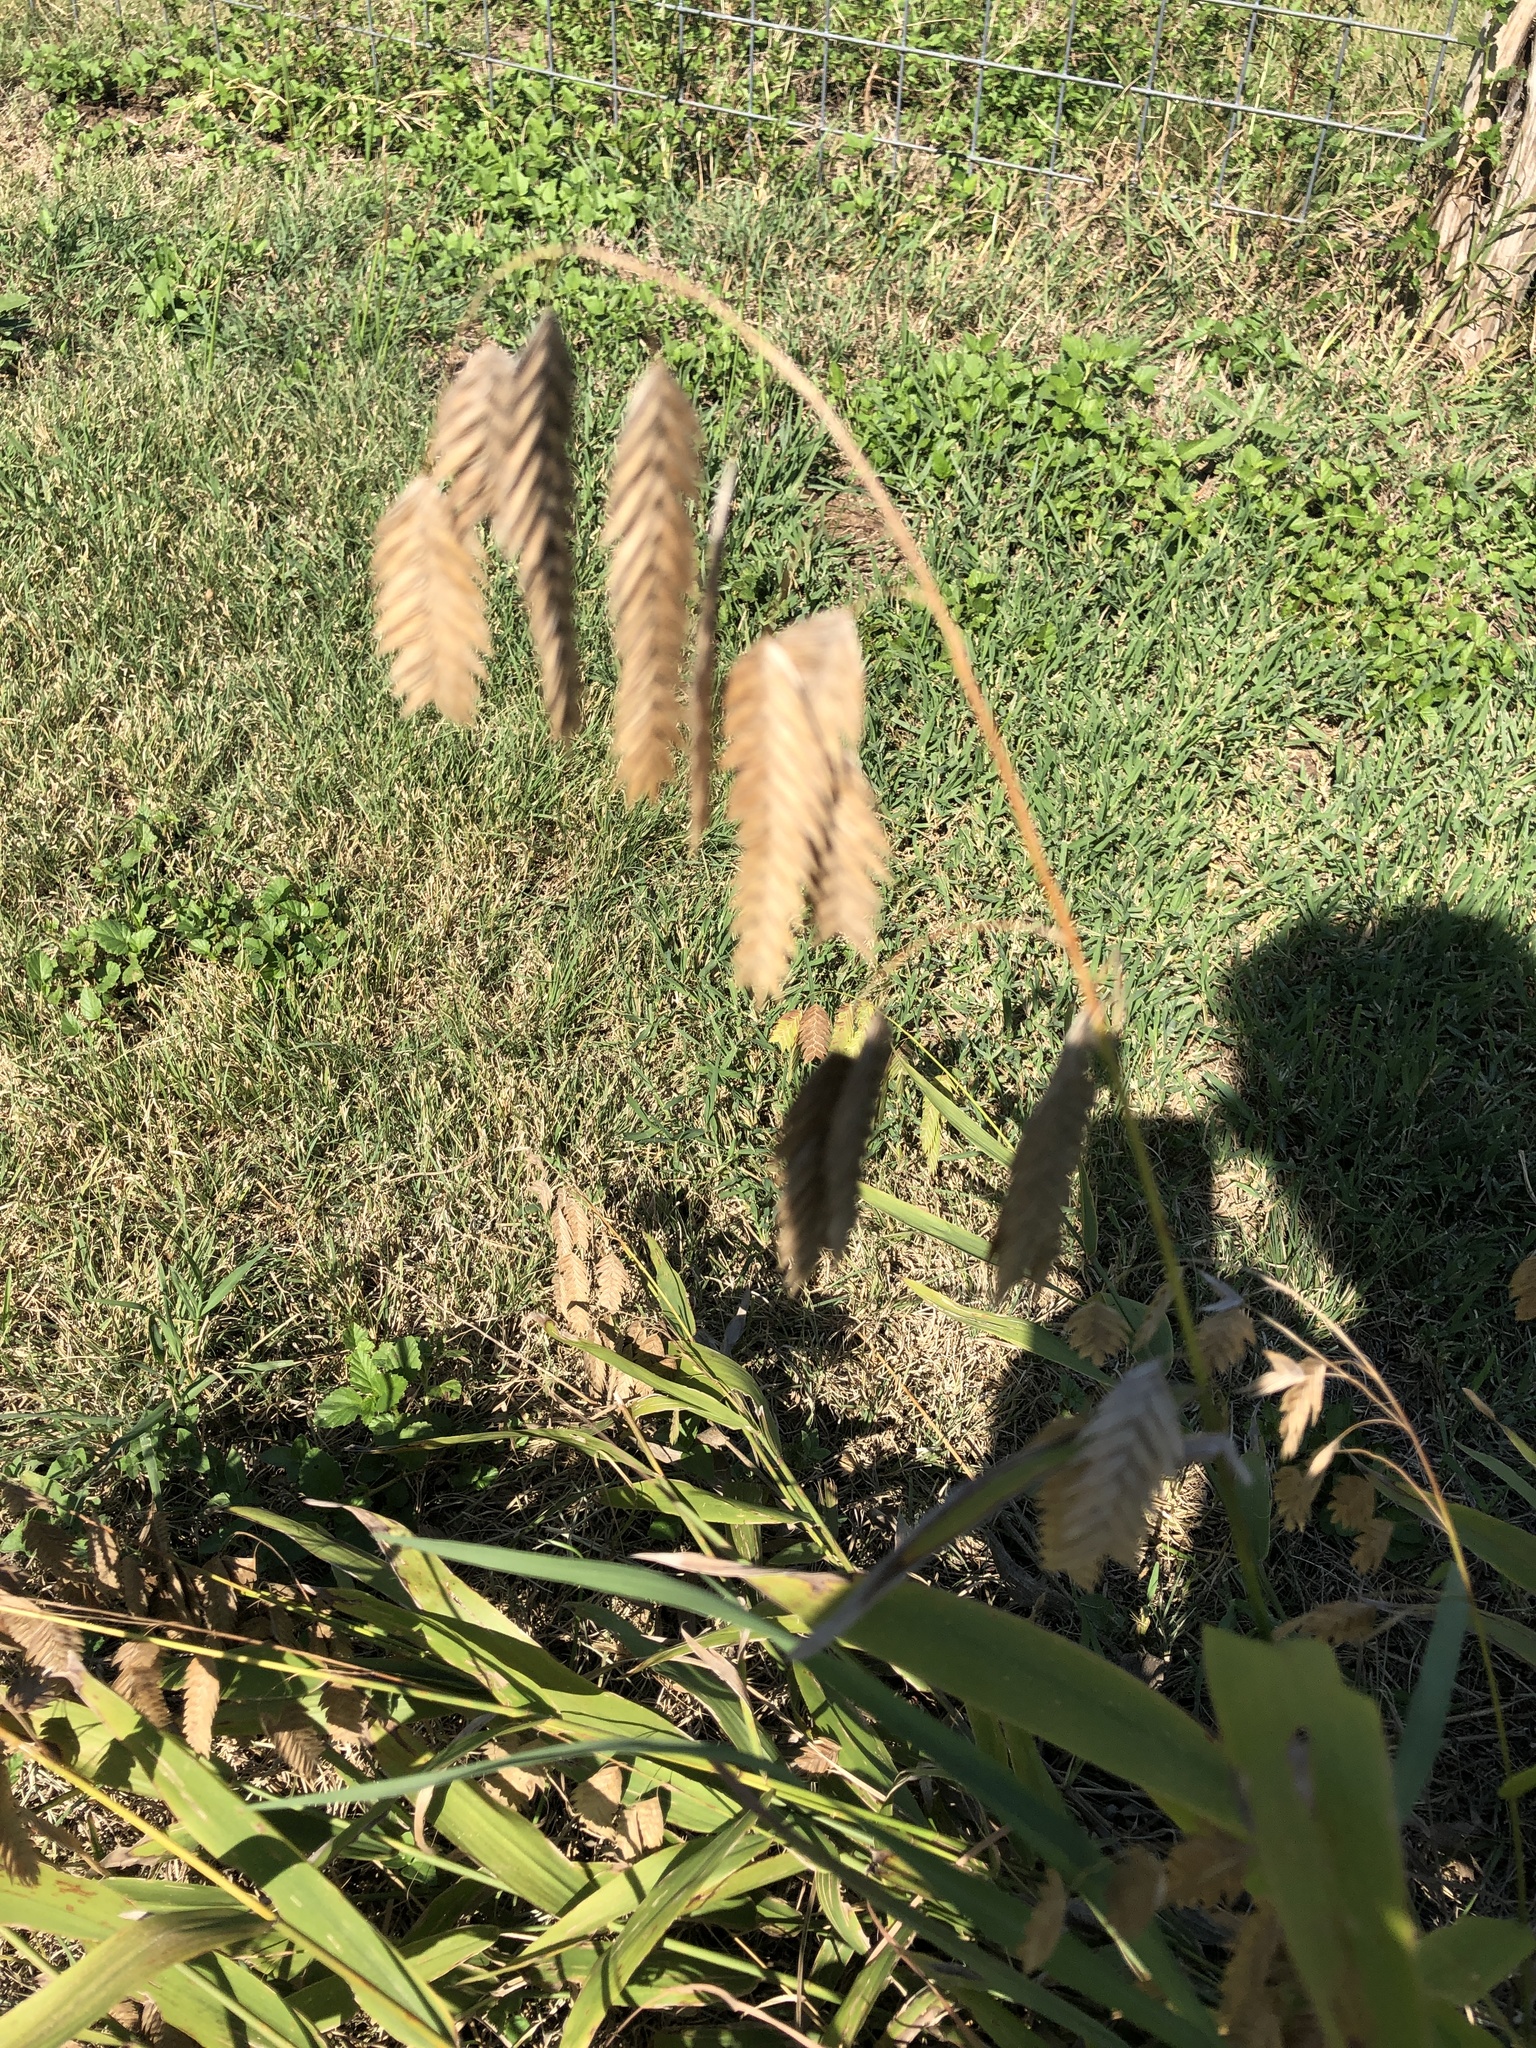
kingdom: Plantae
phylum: Tracheophyta
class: Liliopsida
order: Poales
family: Poaceae
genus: Chasmanthium
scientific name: Chasmanthium latifolium
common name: Broad-leaved chasmanthium
